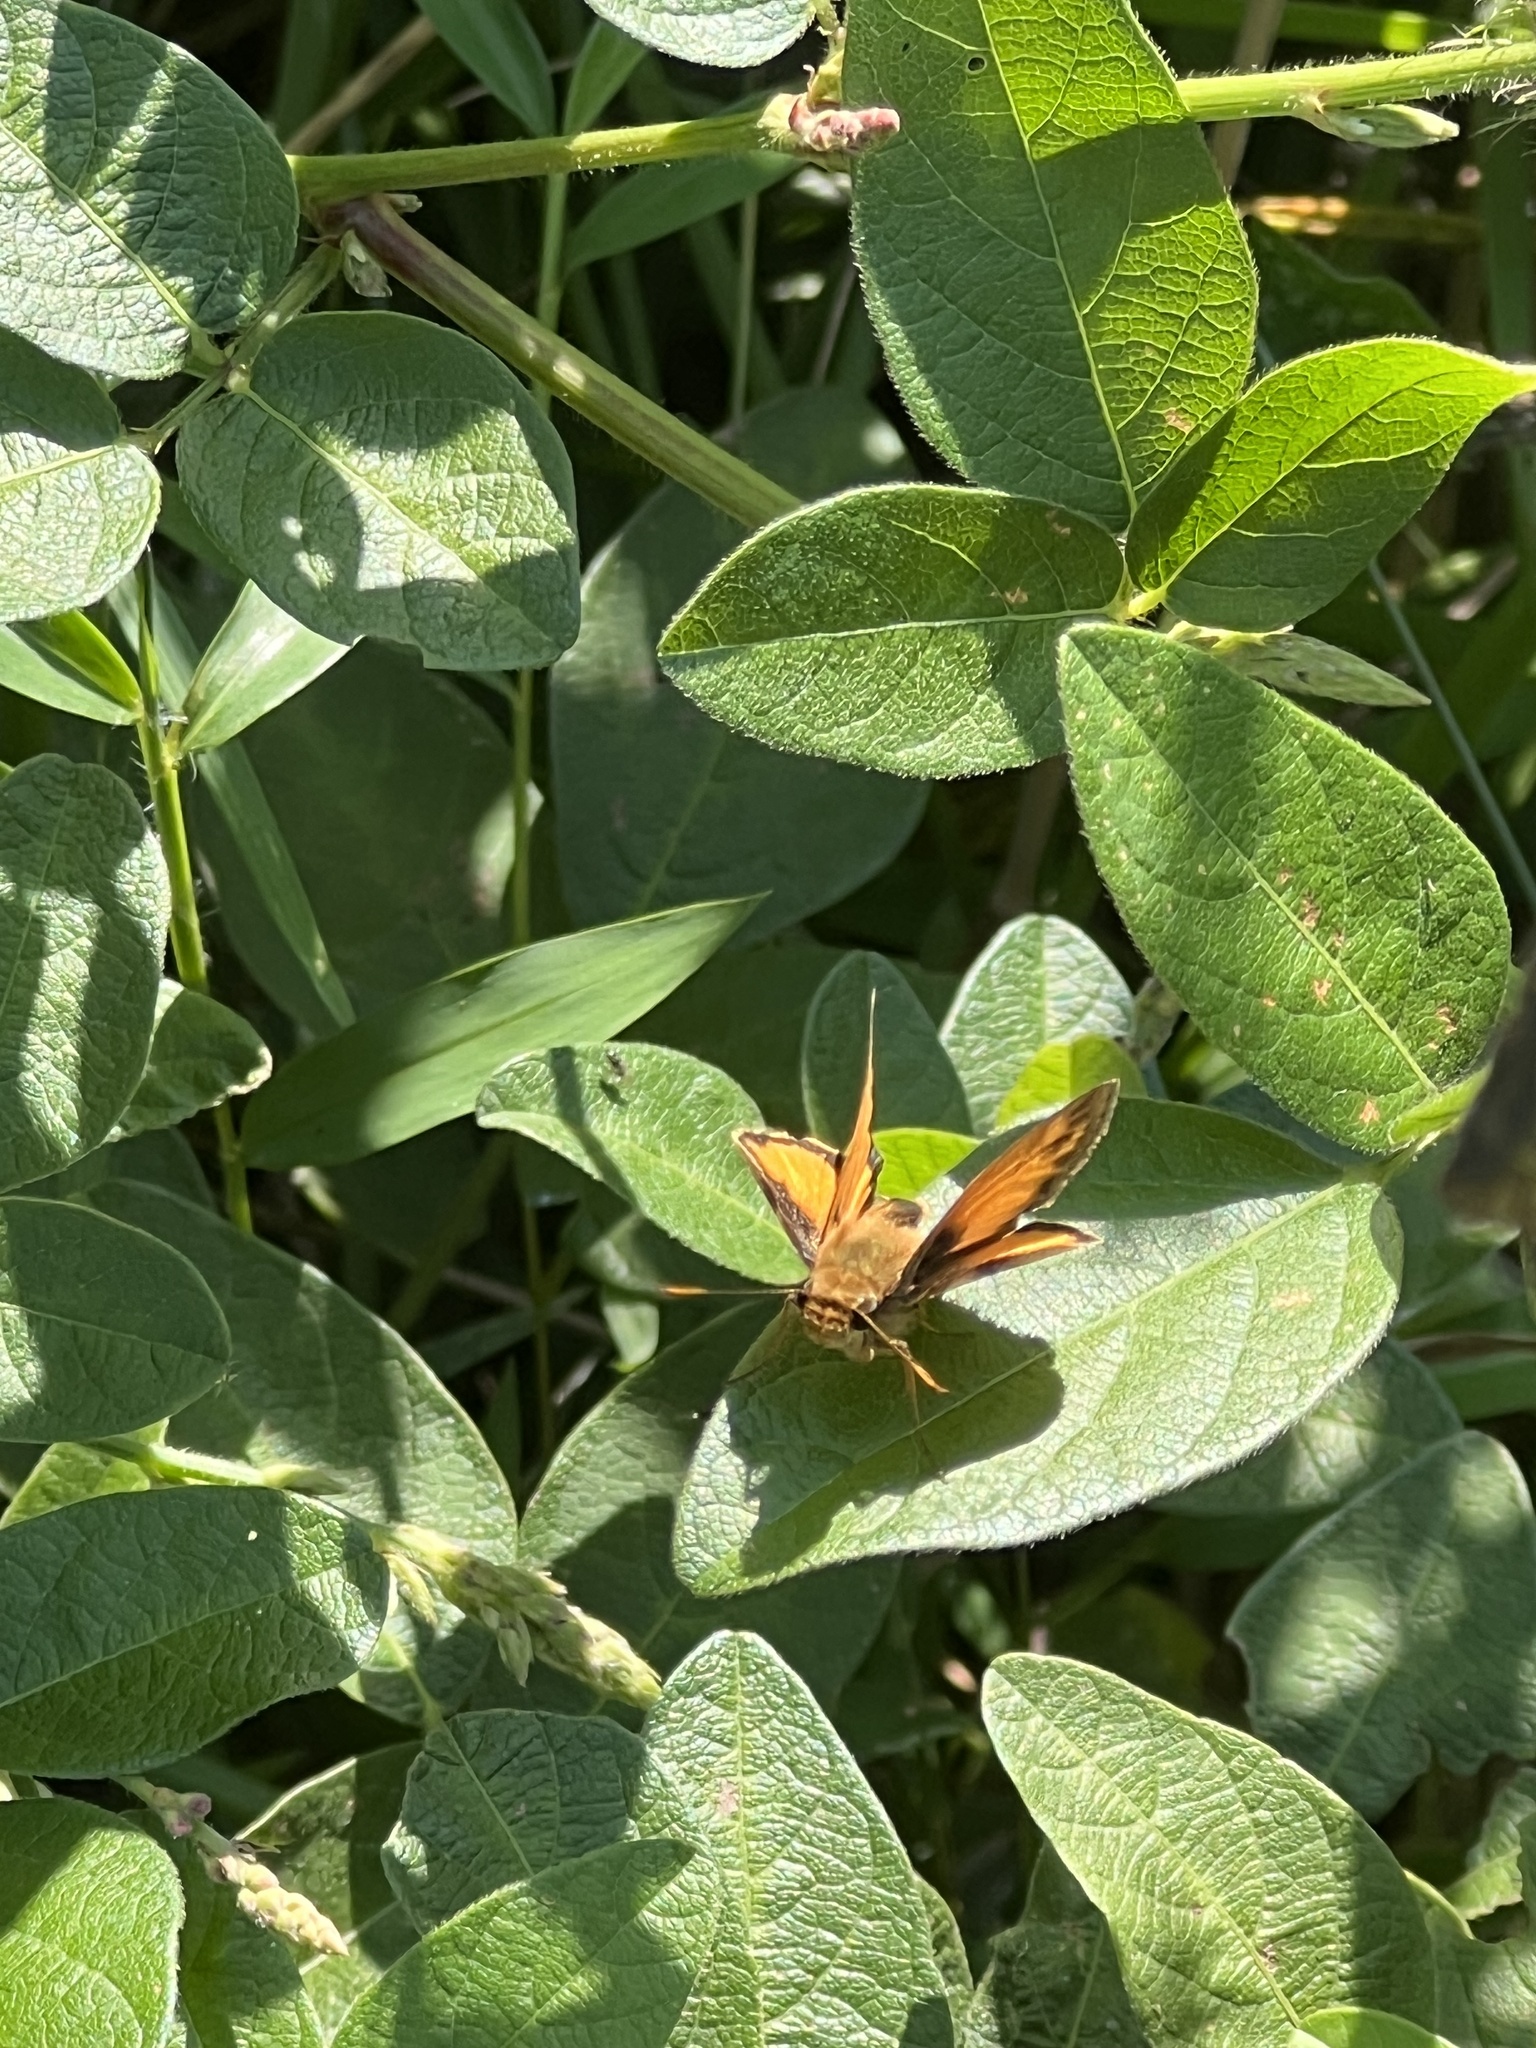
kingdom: Animalia
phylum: Arthropoda
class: Insecta
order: Lepidoptera
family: Hesperiidae
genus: Lon
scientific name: Lon zabulon
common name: Zabulon skipper
